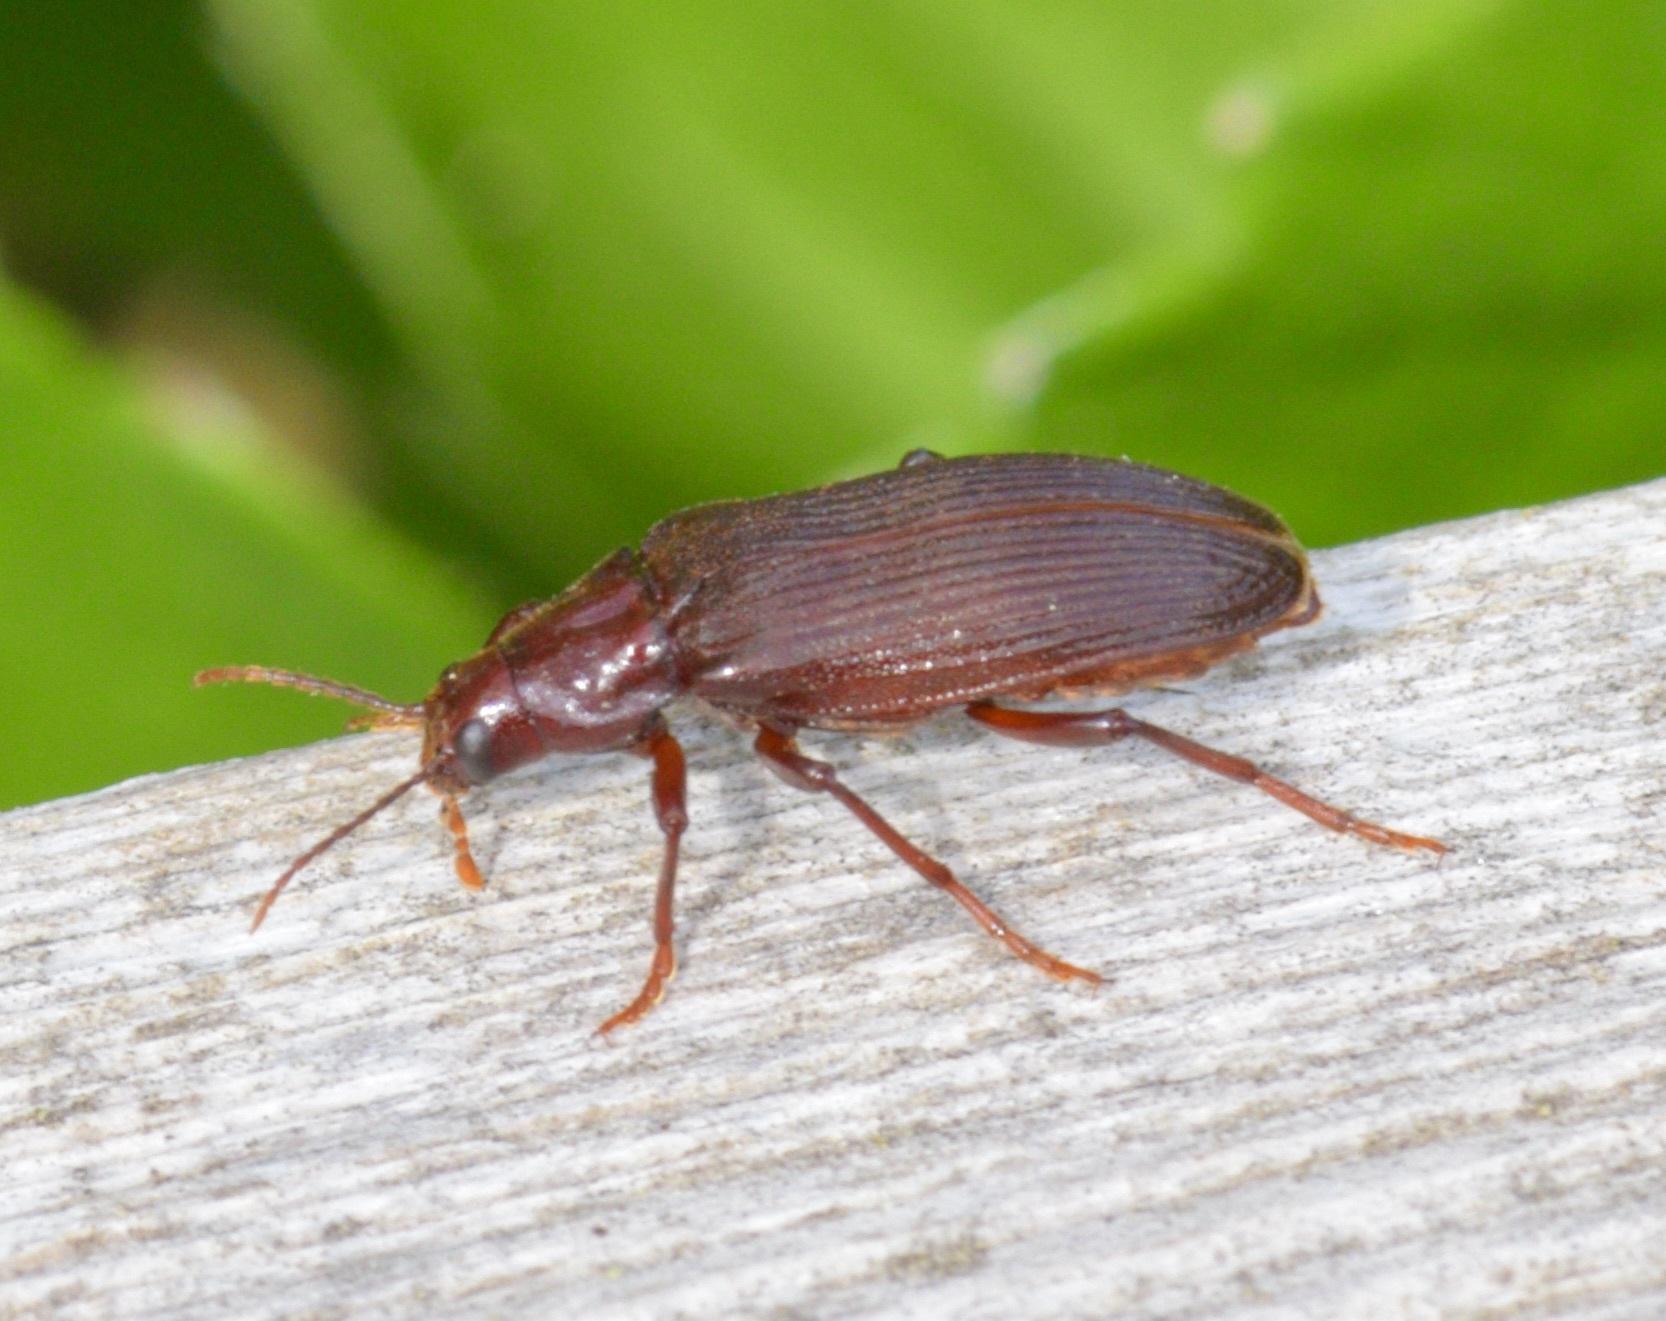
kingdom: Animalia
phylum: Arthropoda
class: Insecta
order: Coleoptera
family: Melandryidae
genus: Melandrya
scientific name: Melandrya striata
